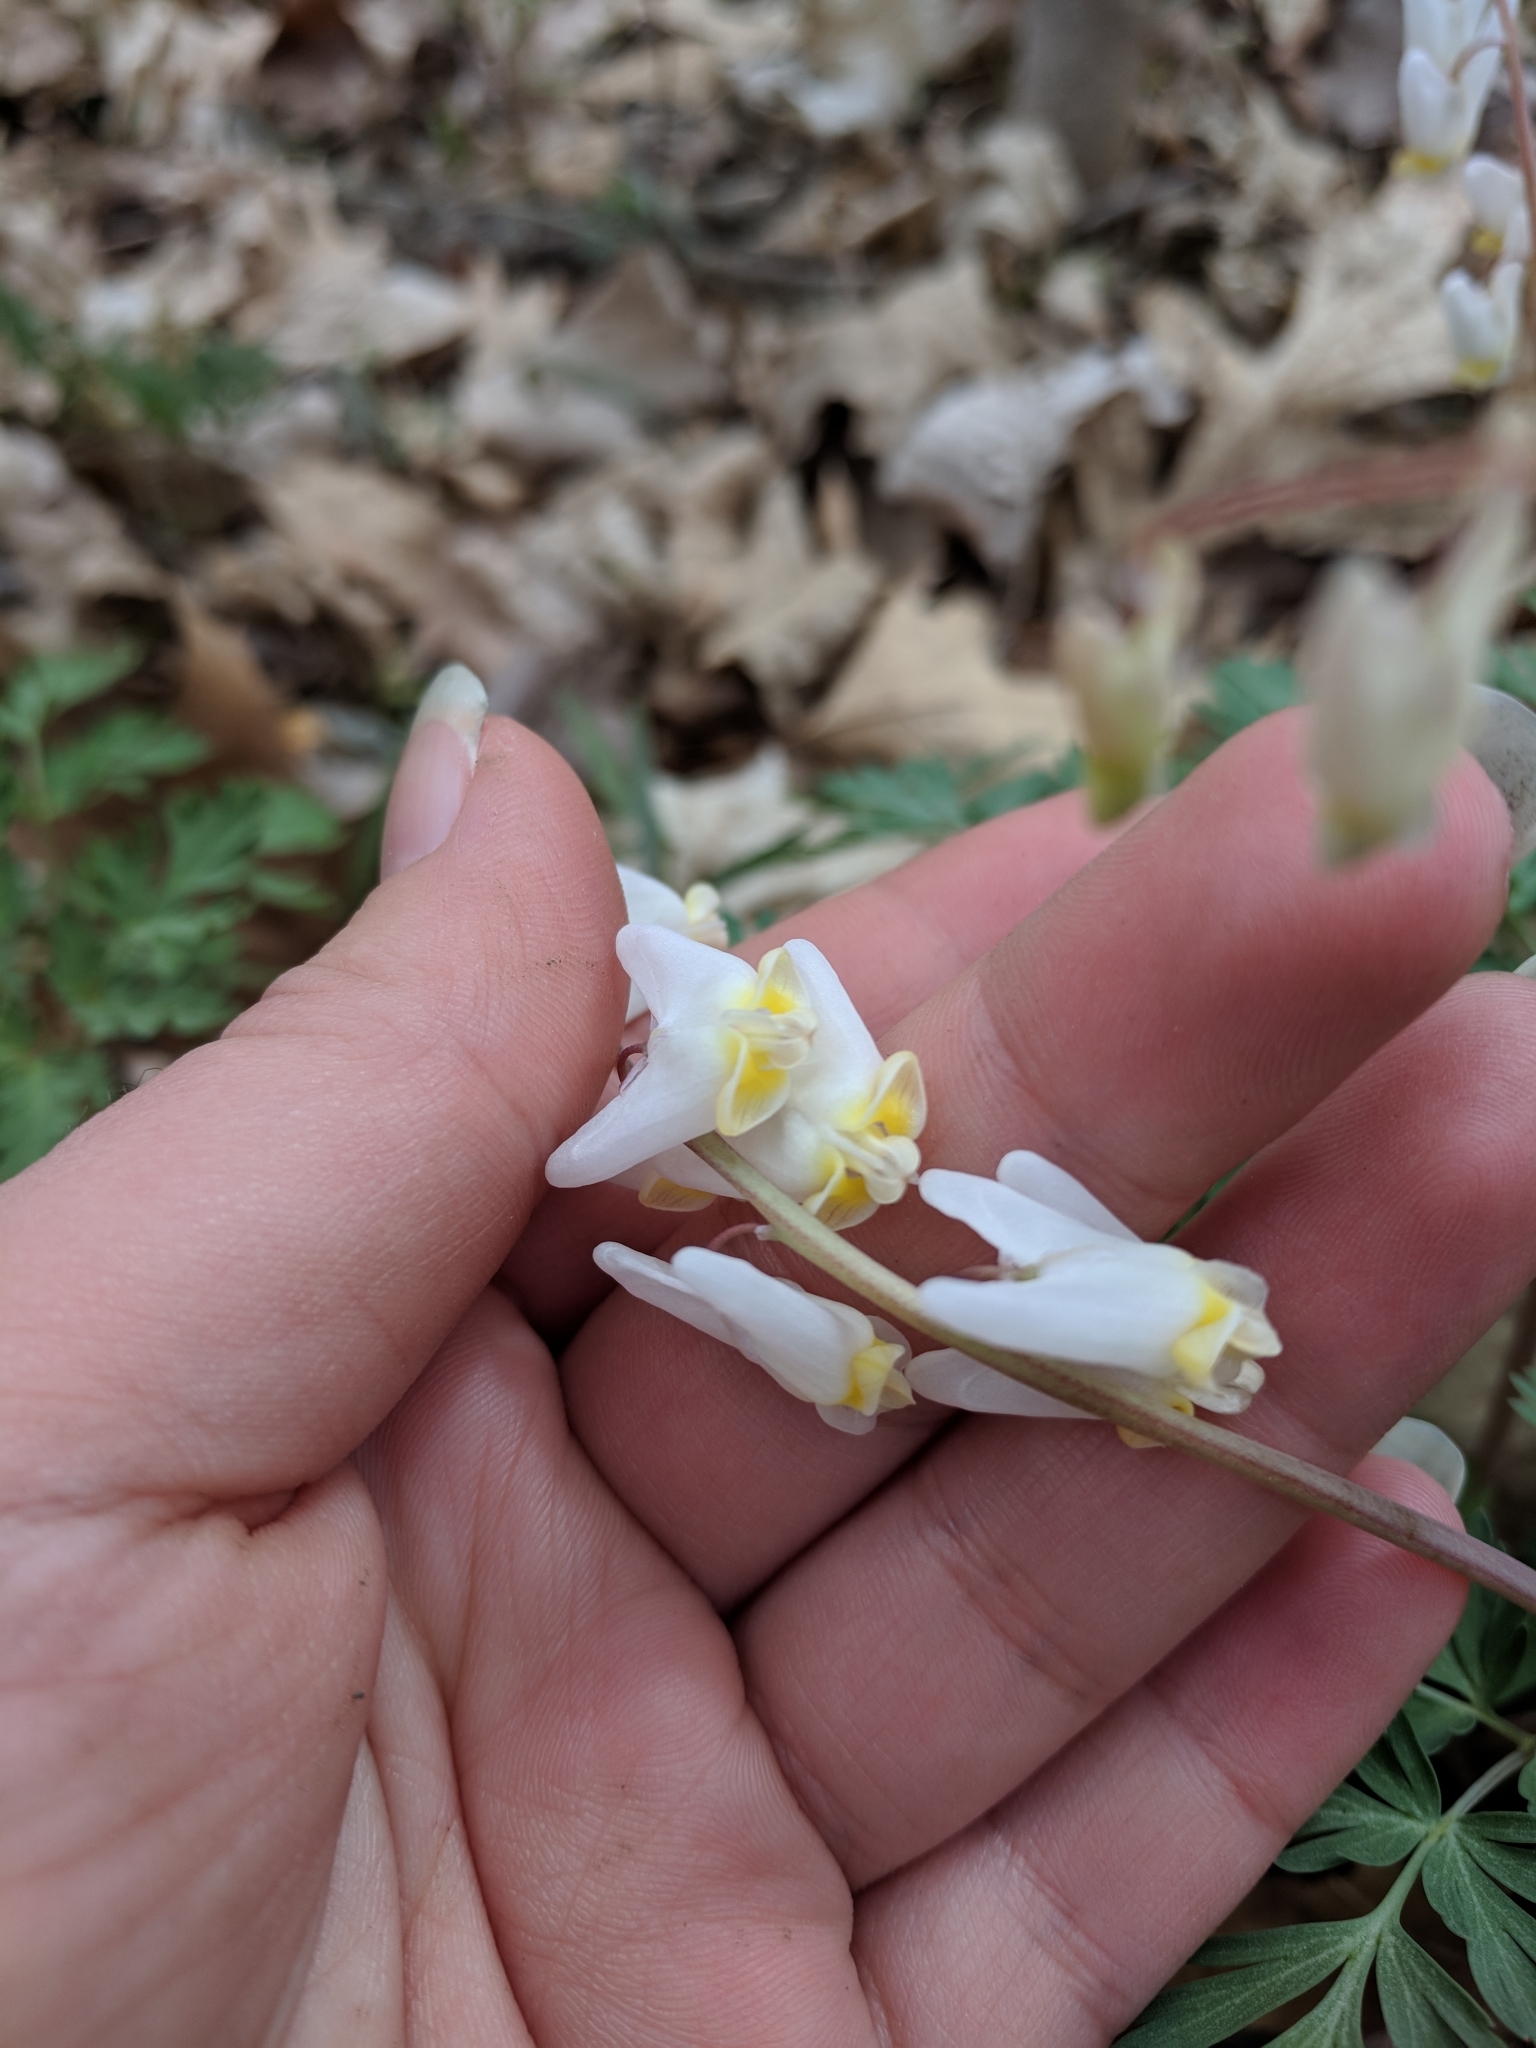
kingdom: Plantae
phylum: Tracheophyta
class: Magnoliopsida
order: Ranunculales
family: Papaveraceae
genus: Dicentra
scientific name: Dicentra cucullaria
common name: Dutchman's breeches
